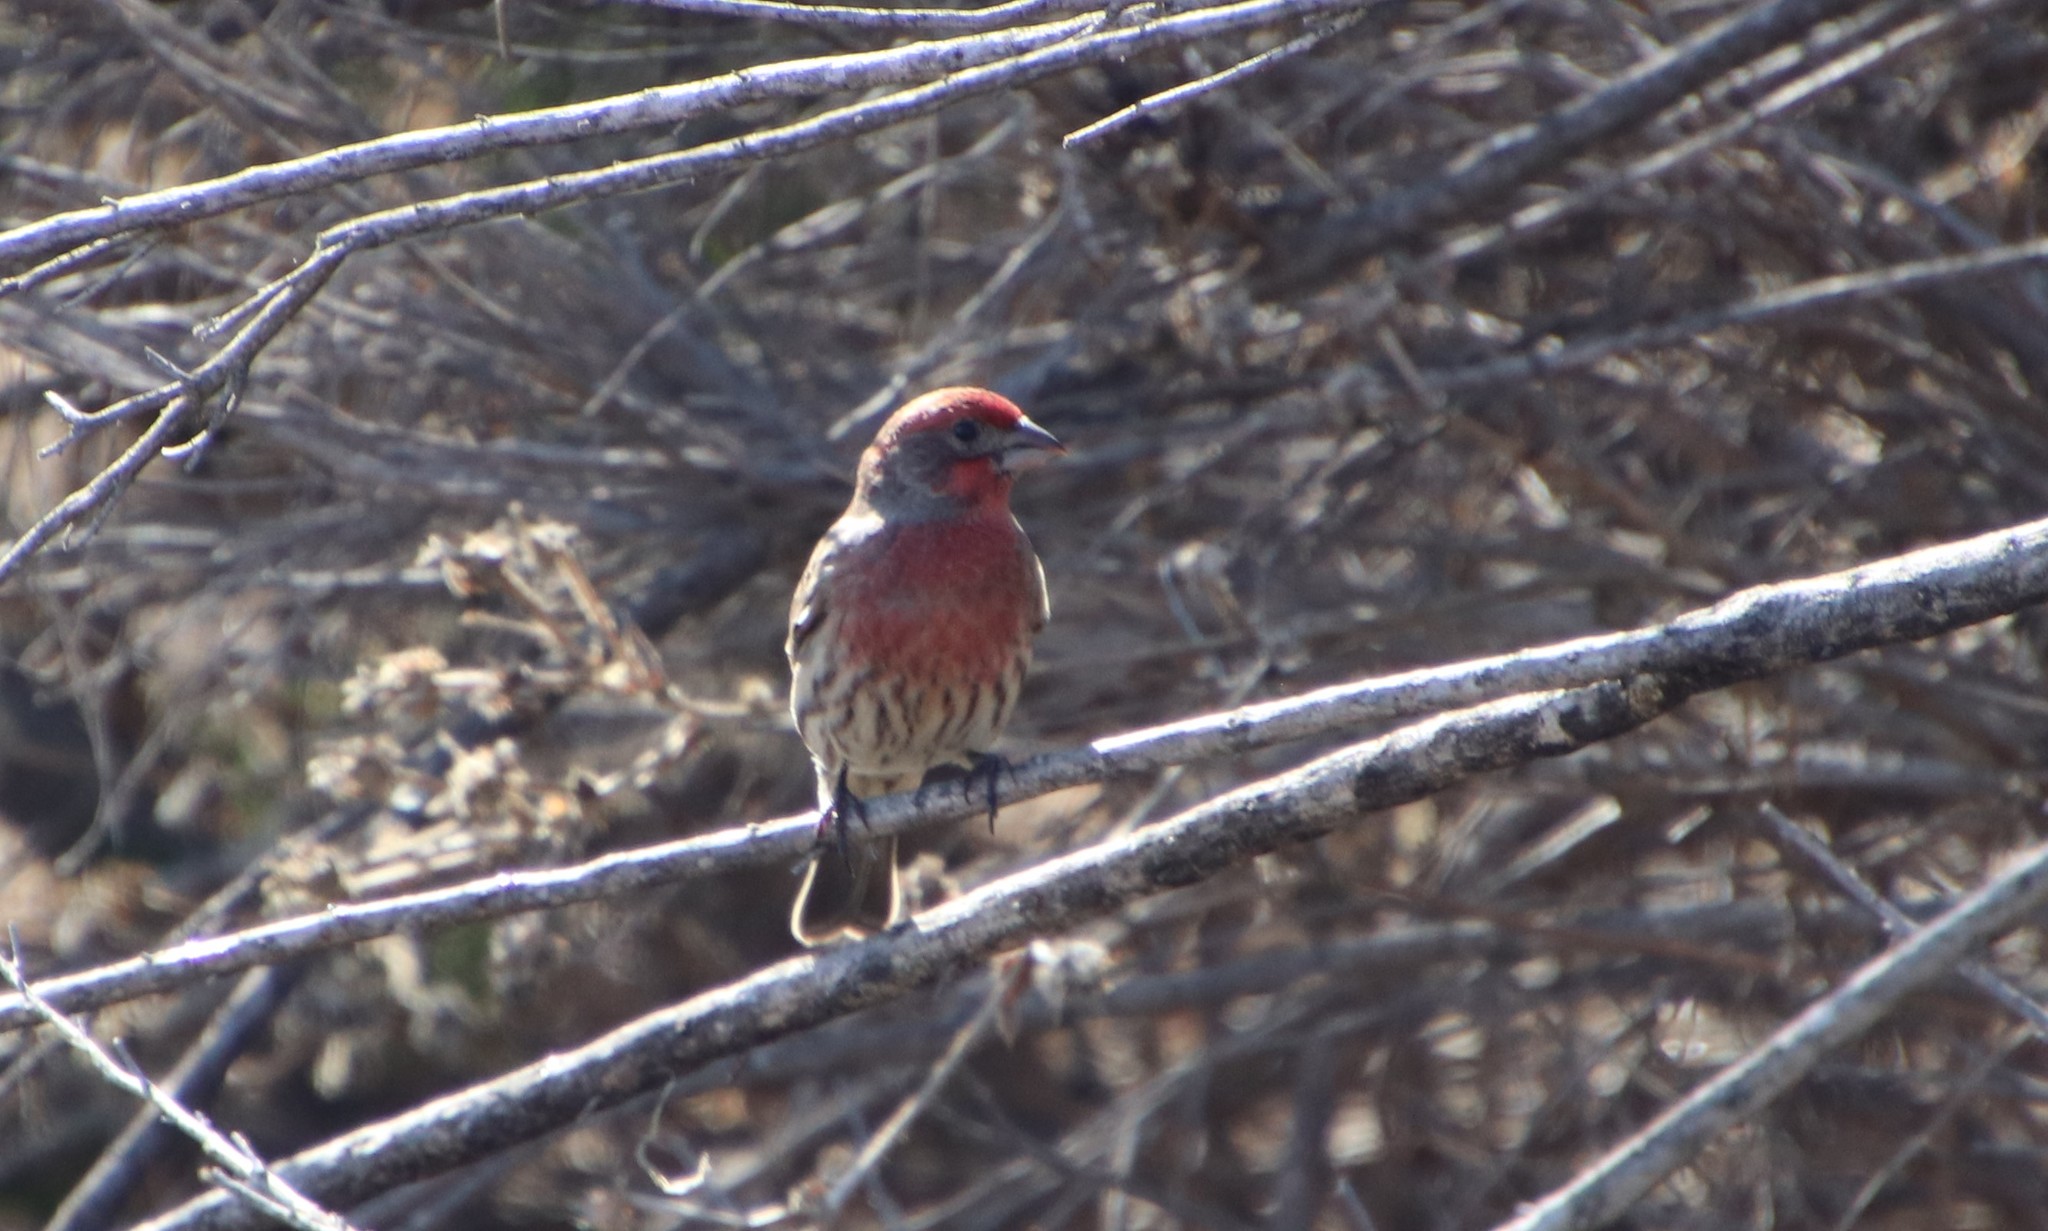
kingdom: Animalia
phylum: Chordata
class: Aves
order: Passeriformes
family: Fringillidae
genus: Haemorhous
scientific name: Haemorhous mexicanus
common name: House finch
